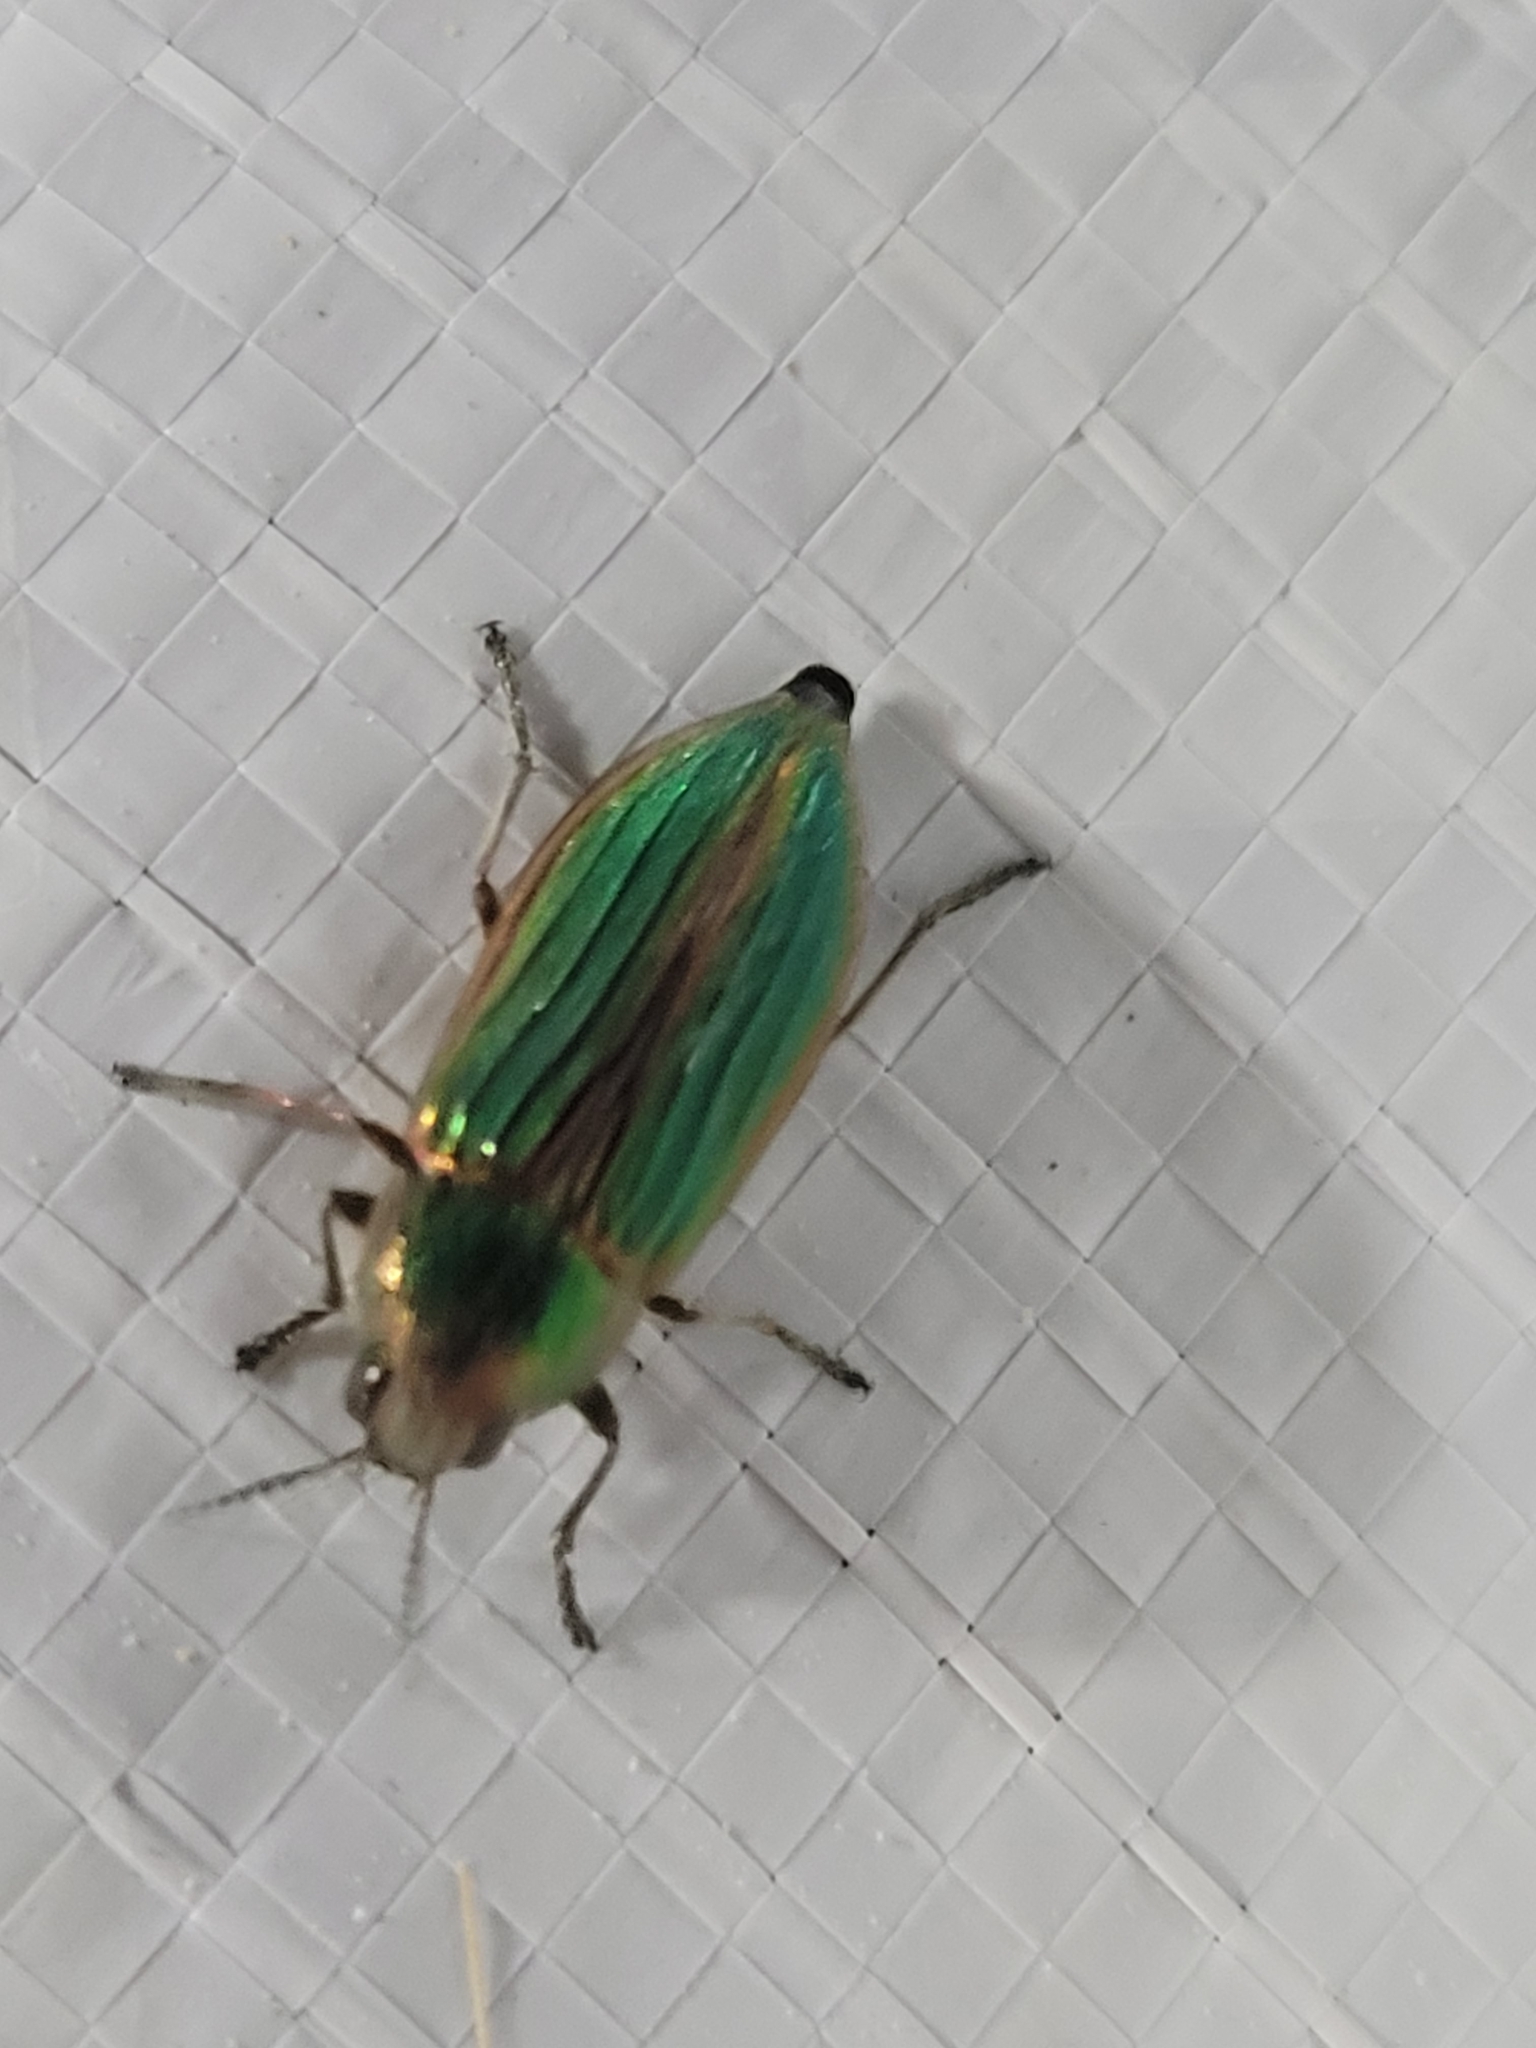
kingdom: Animalia
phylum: Arthropoda
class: Insecta
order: Coleoptera
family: Buprestidae
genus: Buprestis
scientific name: Buprestis aurulenta
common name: Golden buprestid
